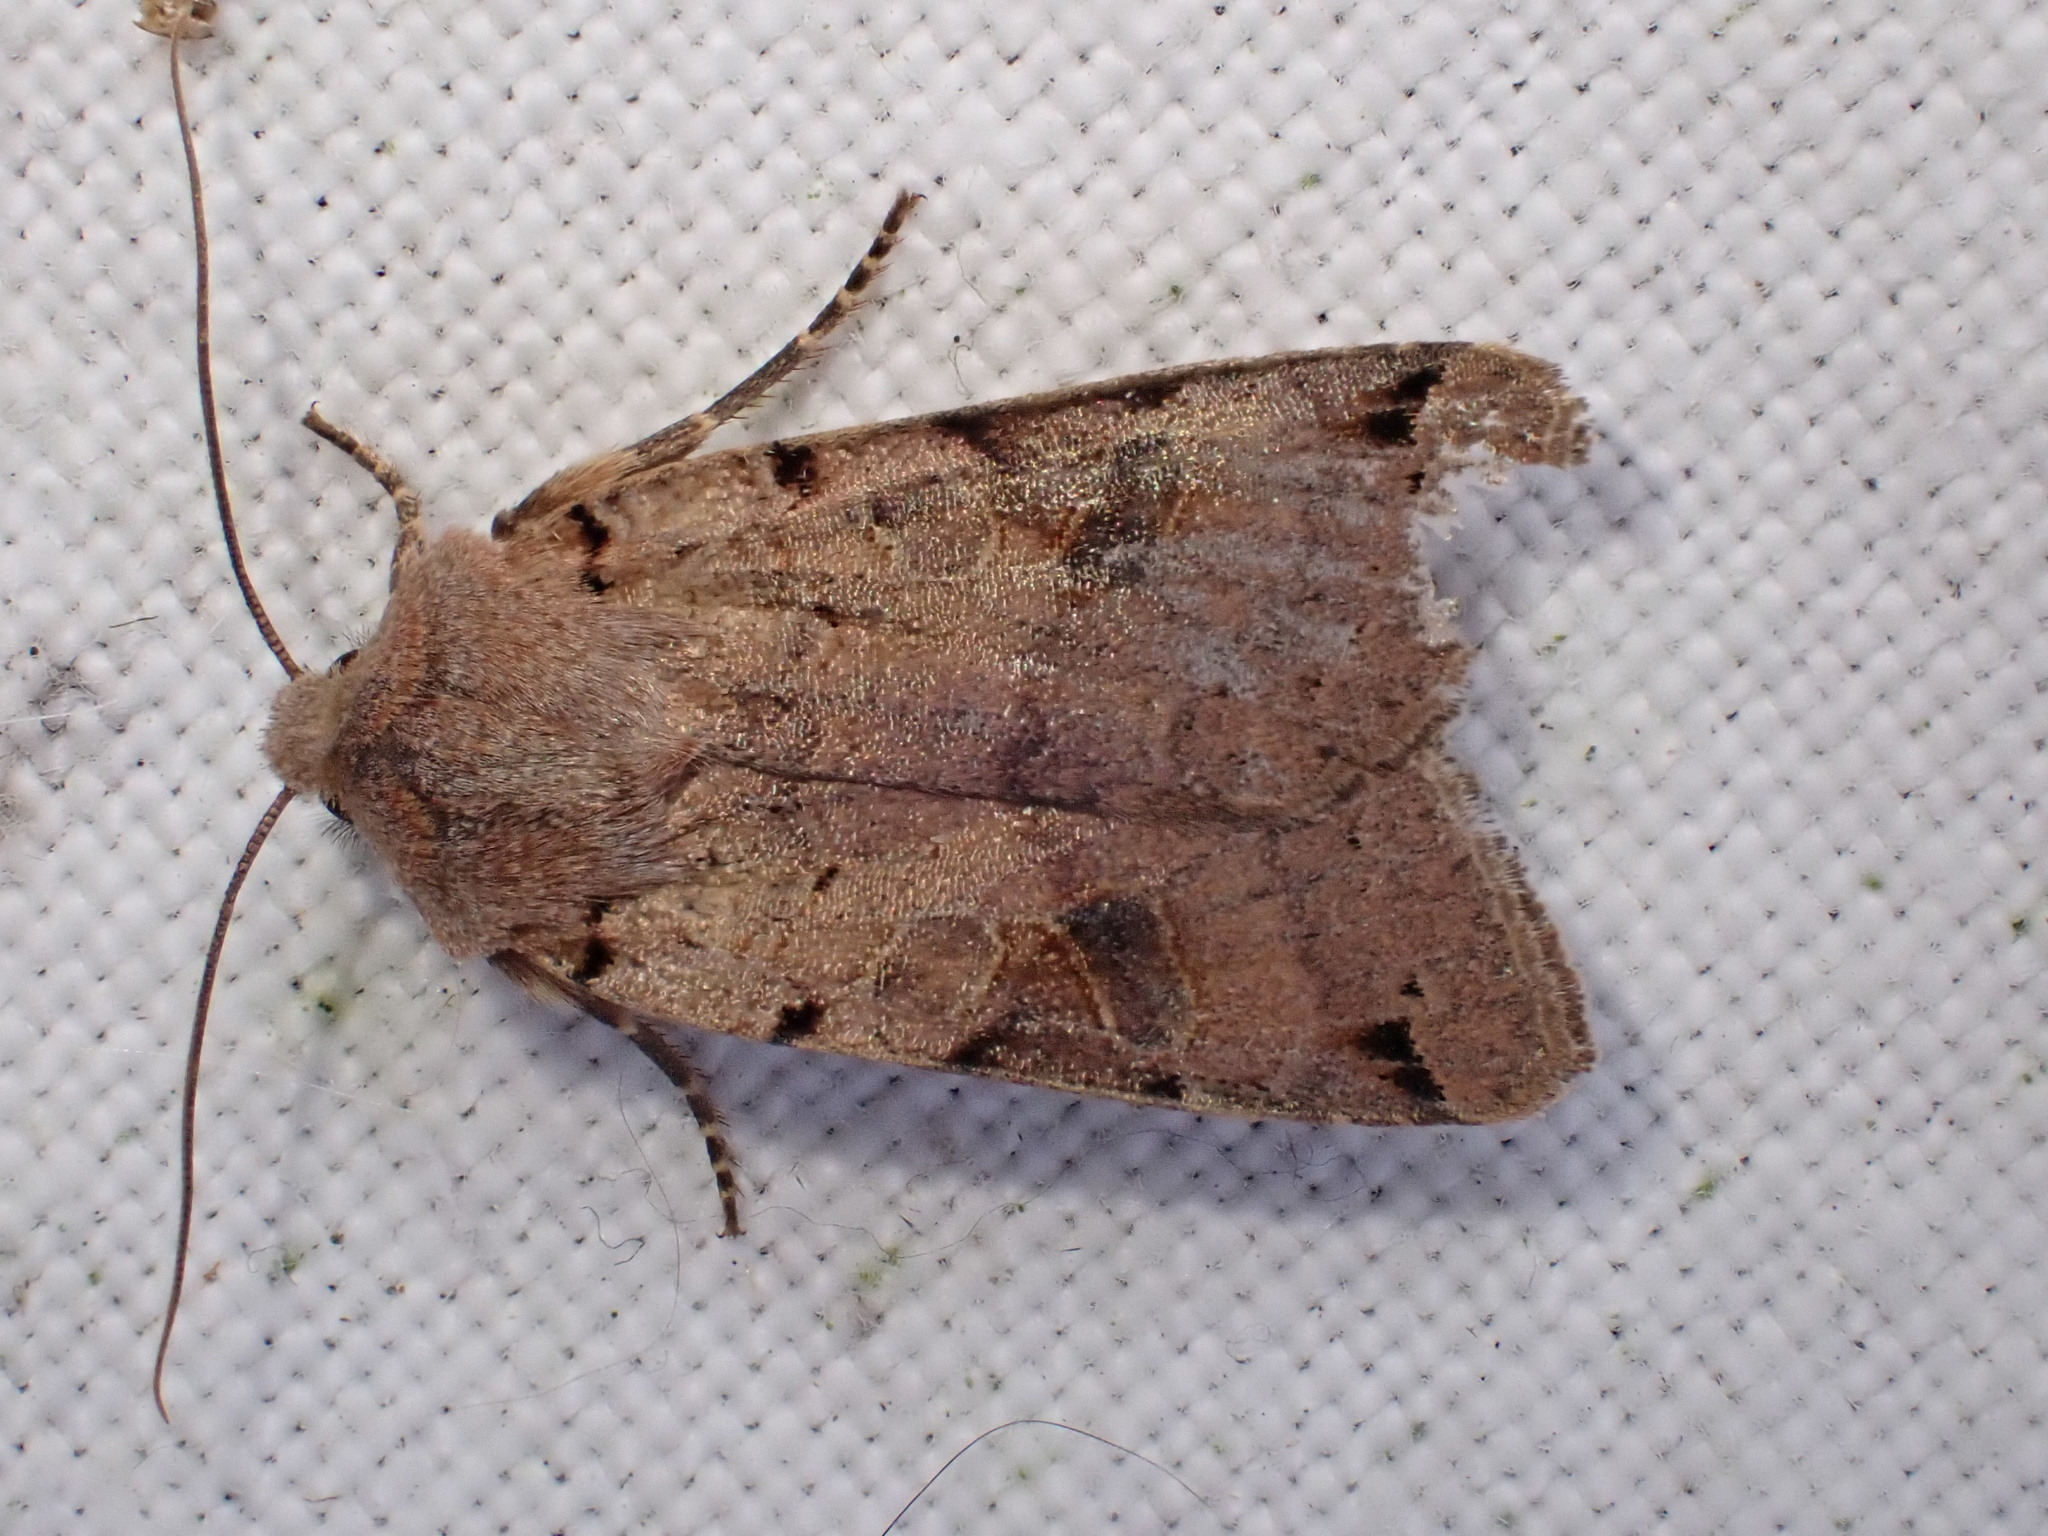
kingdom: Animalia
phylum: Arthropoda
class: Insecta
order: Lepidoptera
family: Noctuidae
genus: Agrochola
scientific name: Agrochola litura
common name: Brown-spot pinion
